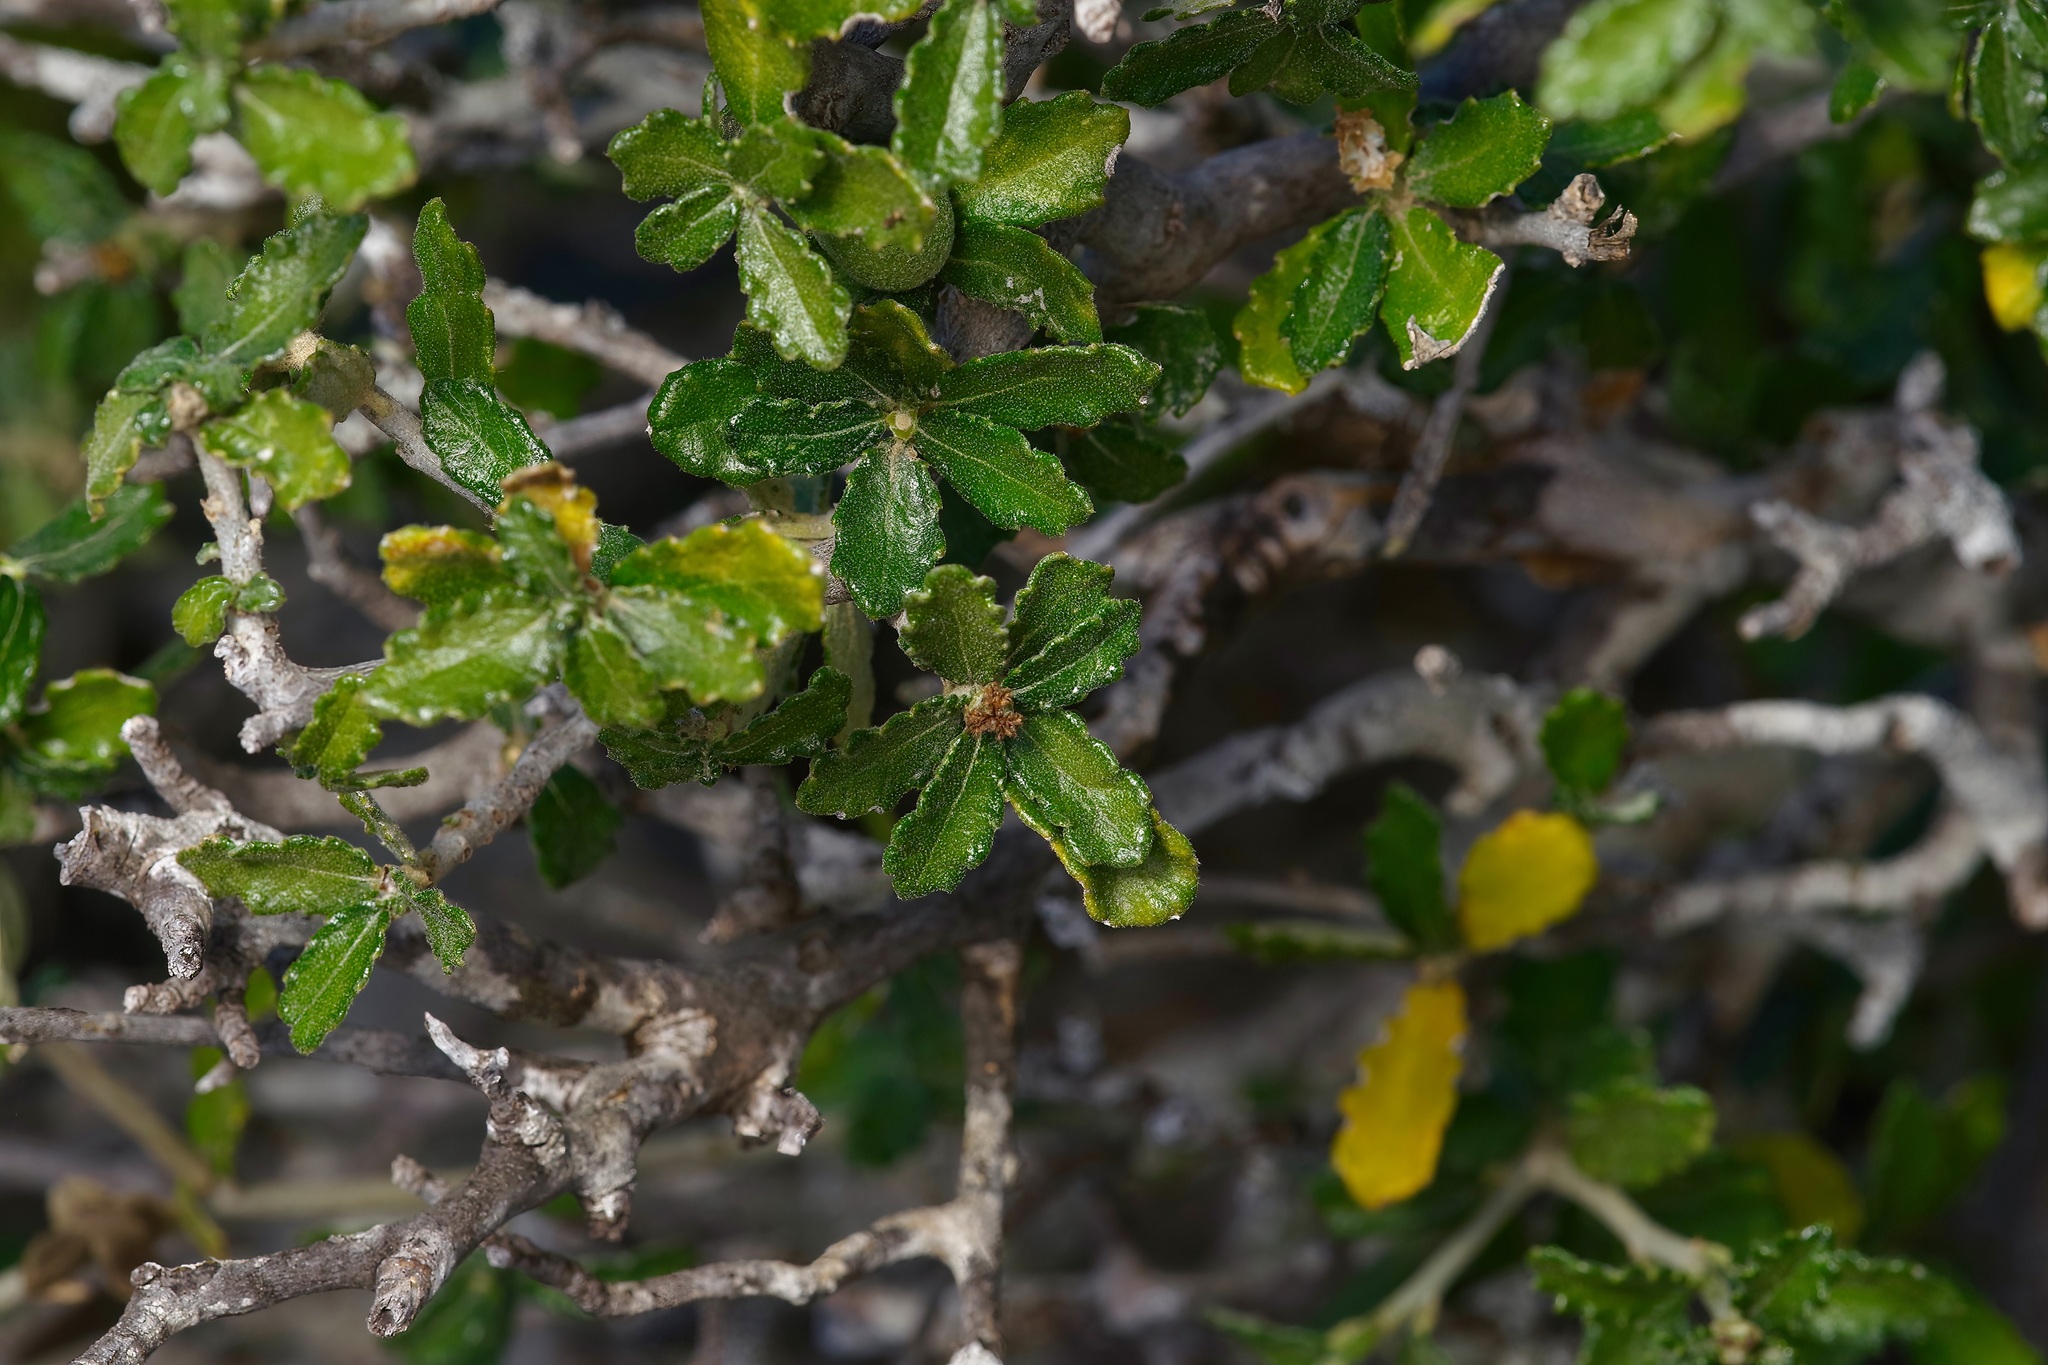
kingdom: Plantae
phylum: Tracheophyta
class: Magnoliopsida
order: Malpighiales
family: Euphorbiaceae
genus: Bernardia
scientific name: Bernardia myricifolia
